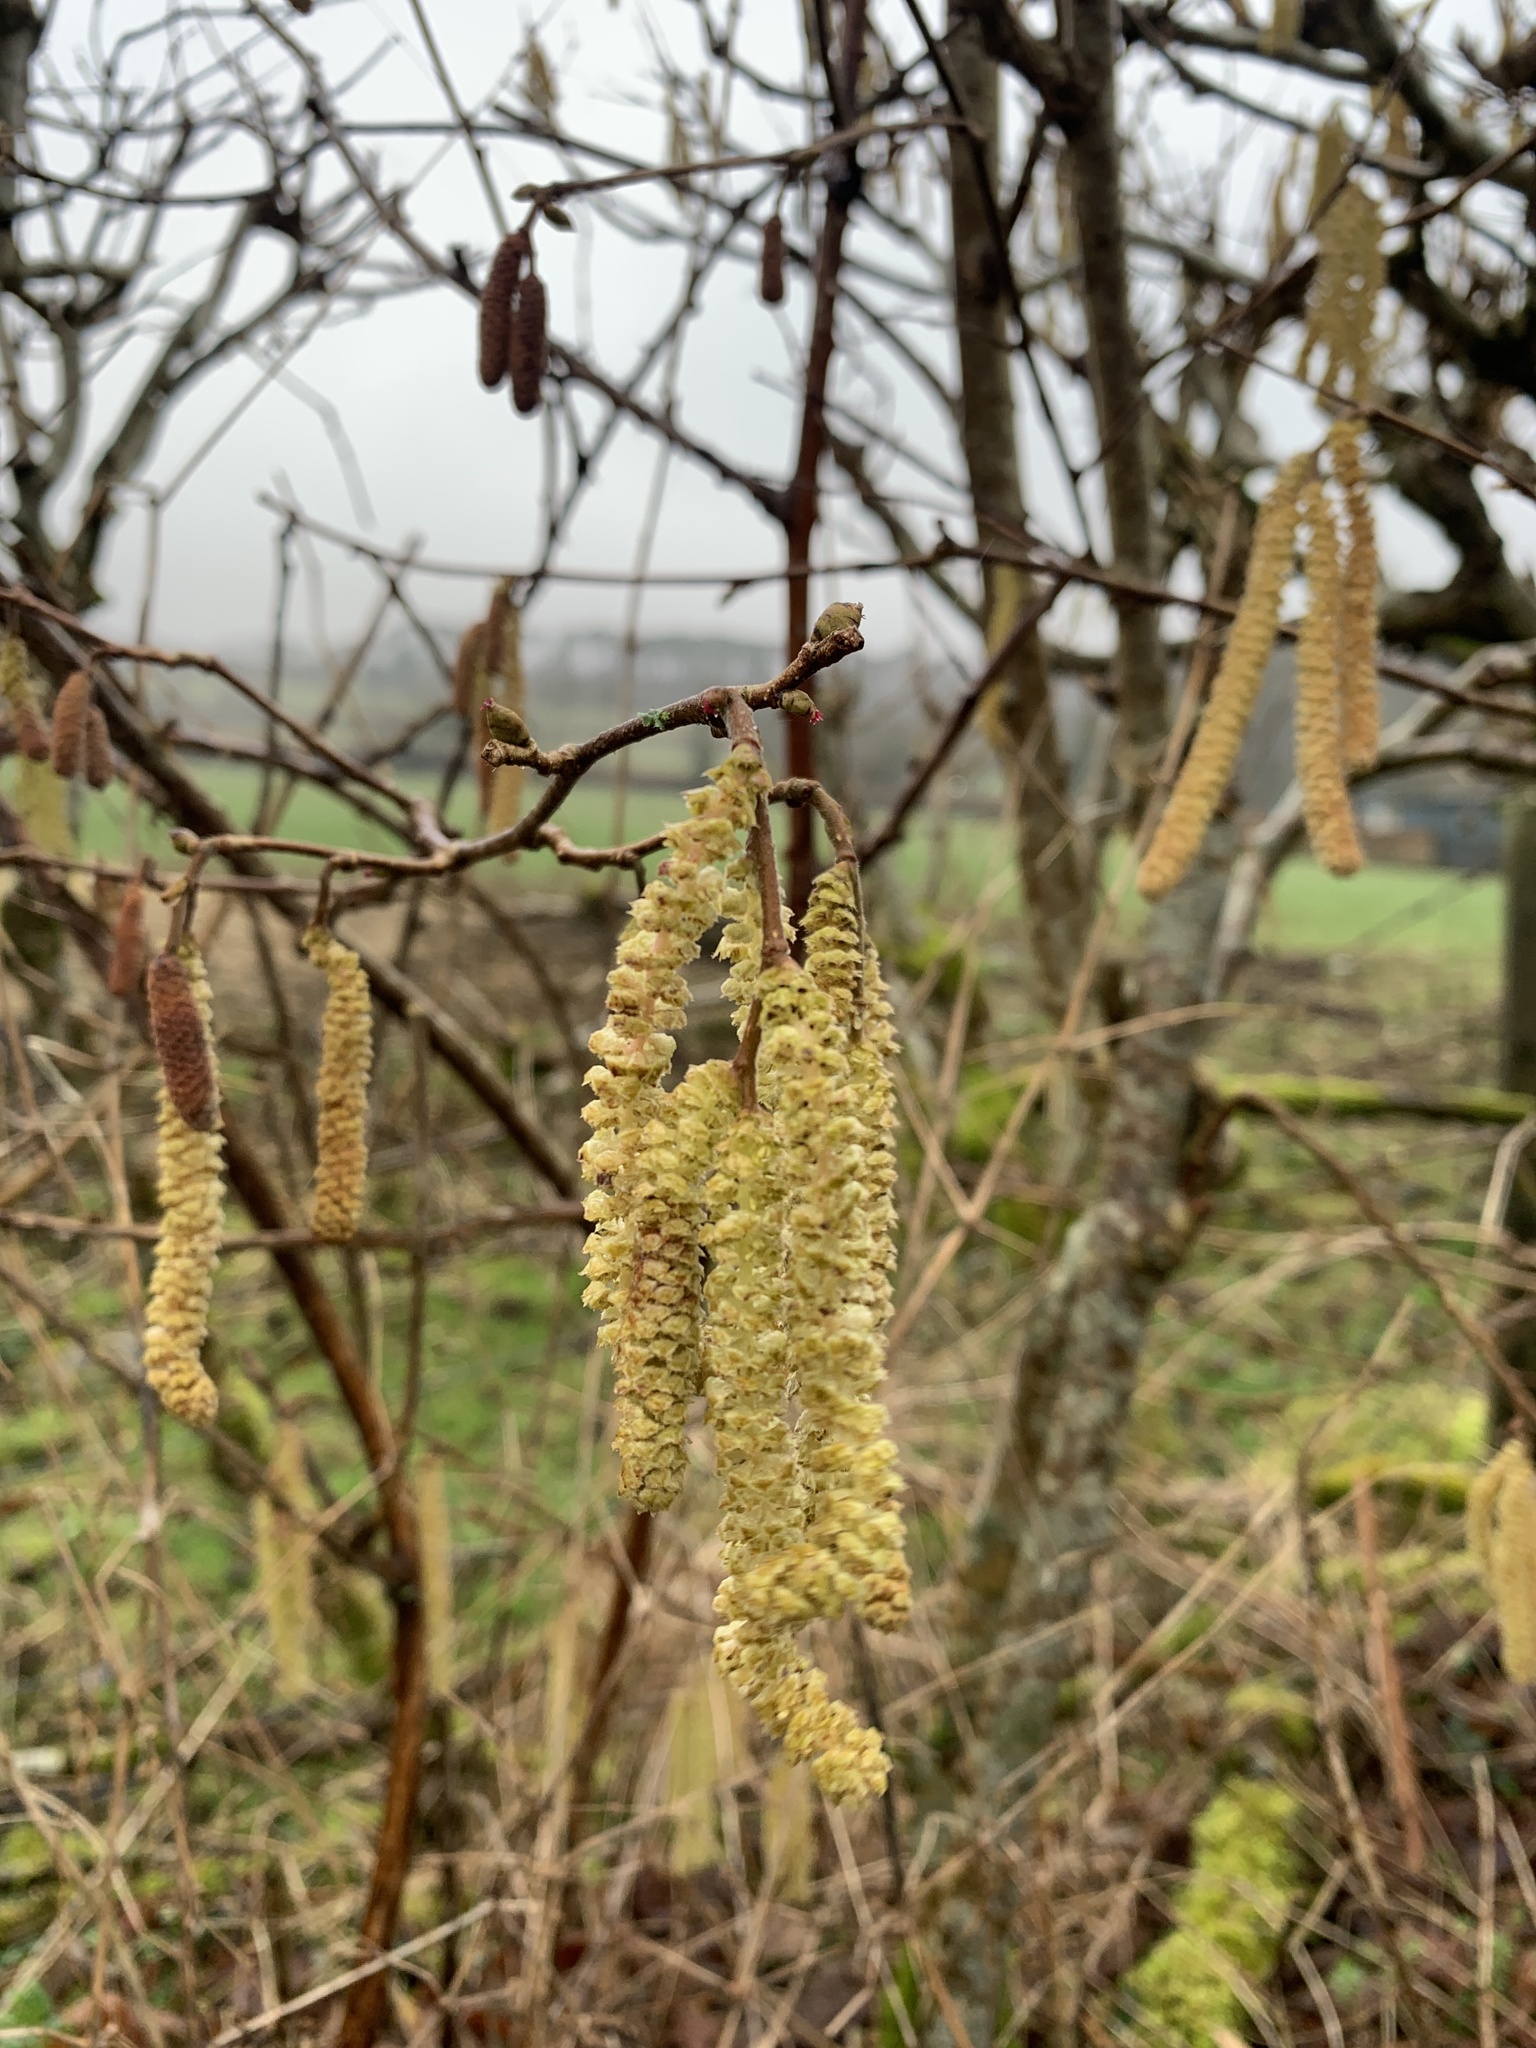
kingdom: Plantae
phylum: Tracheophyta
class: Magnoliopsida
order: Fagales
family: Betulaceae
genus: Corylus
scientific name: Corylus avellana
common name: European hazel
